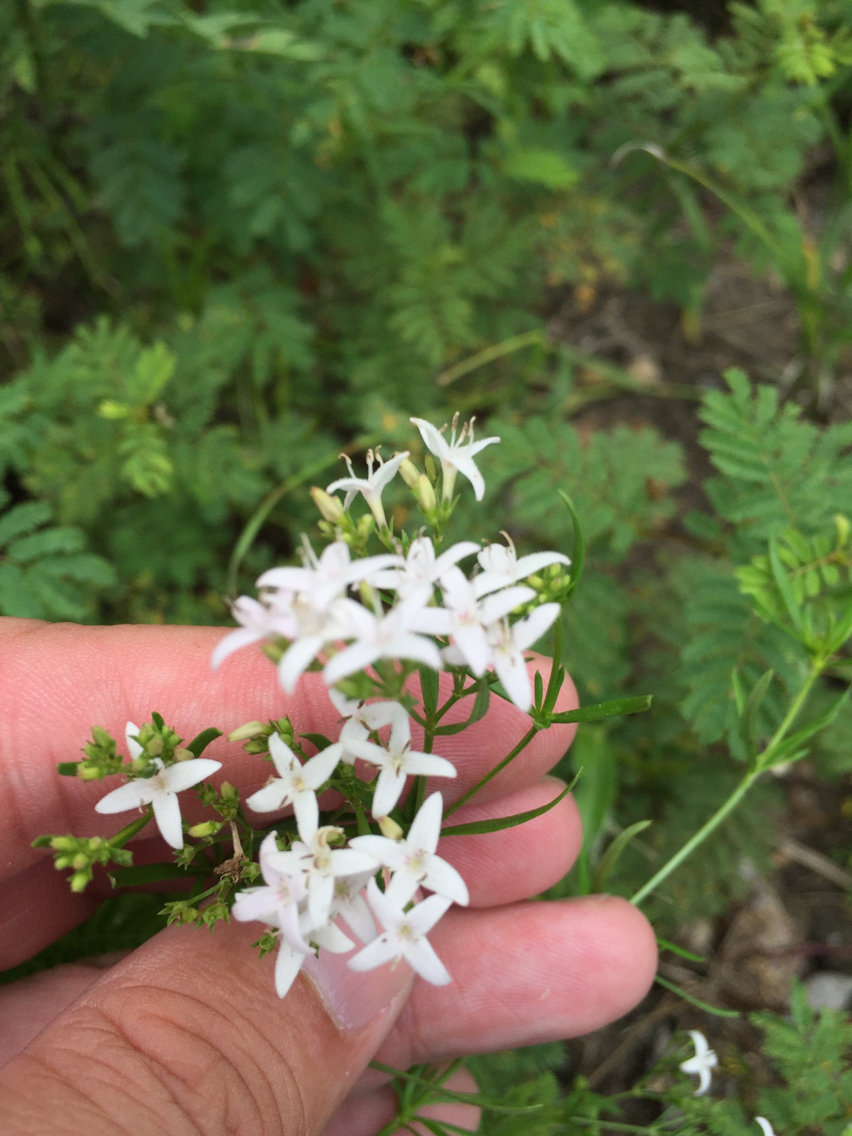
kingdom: Plantae
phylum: Tracheophyta
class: Magnoliopsida
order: Gentianales
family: Rubiaceae
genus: Stenaria
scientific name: Stenaria nigricans
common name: Diamondflowers
